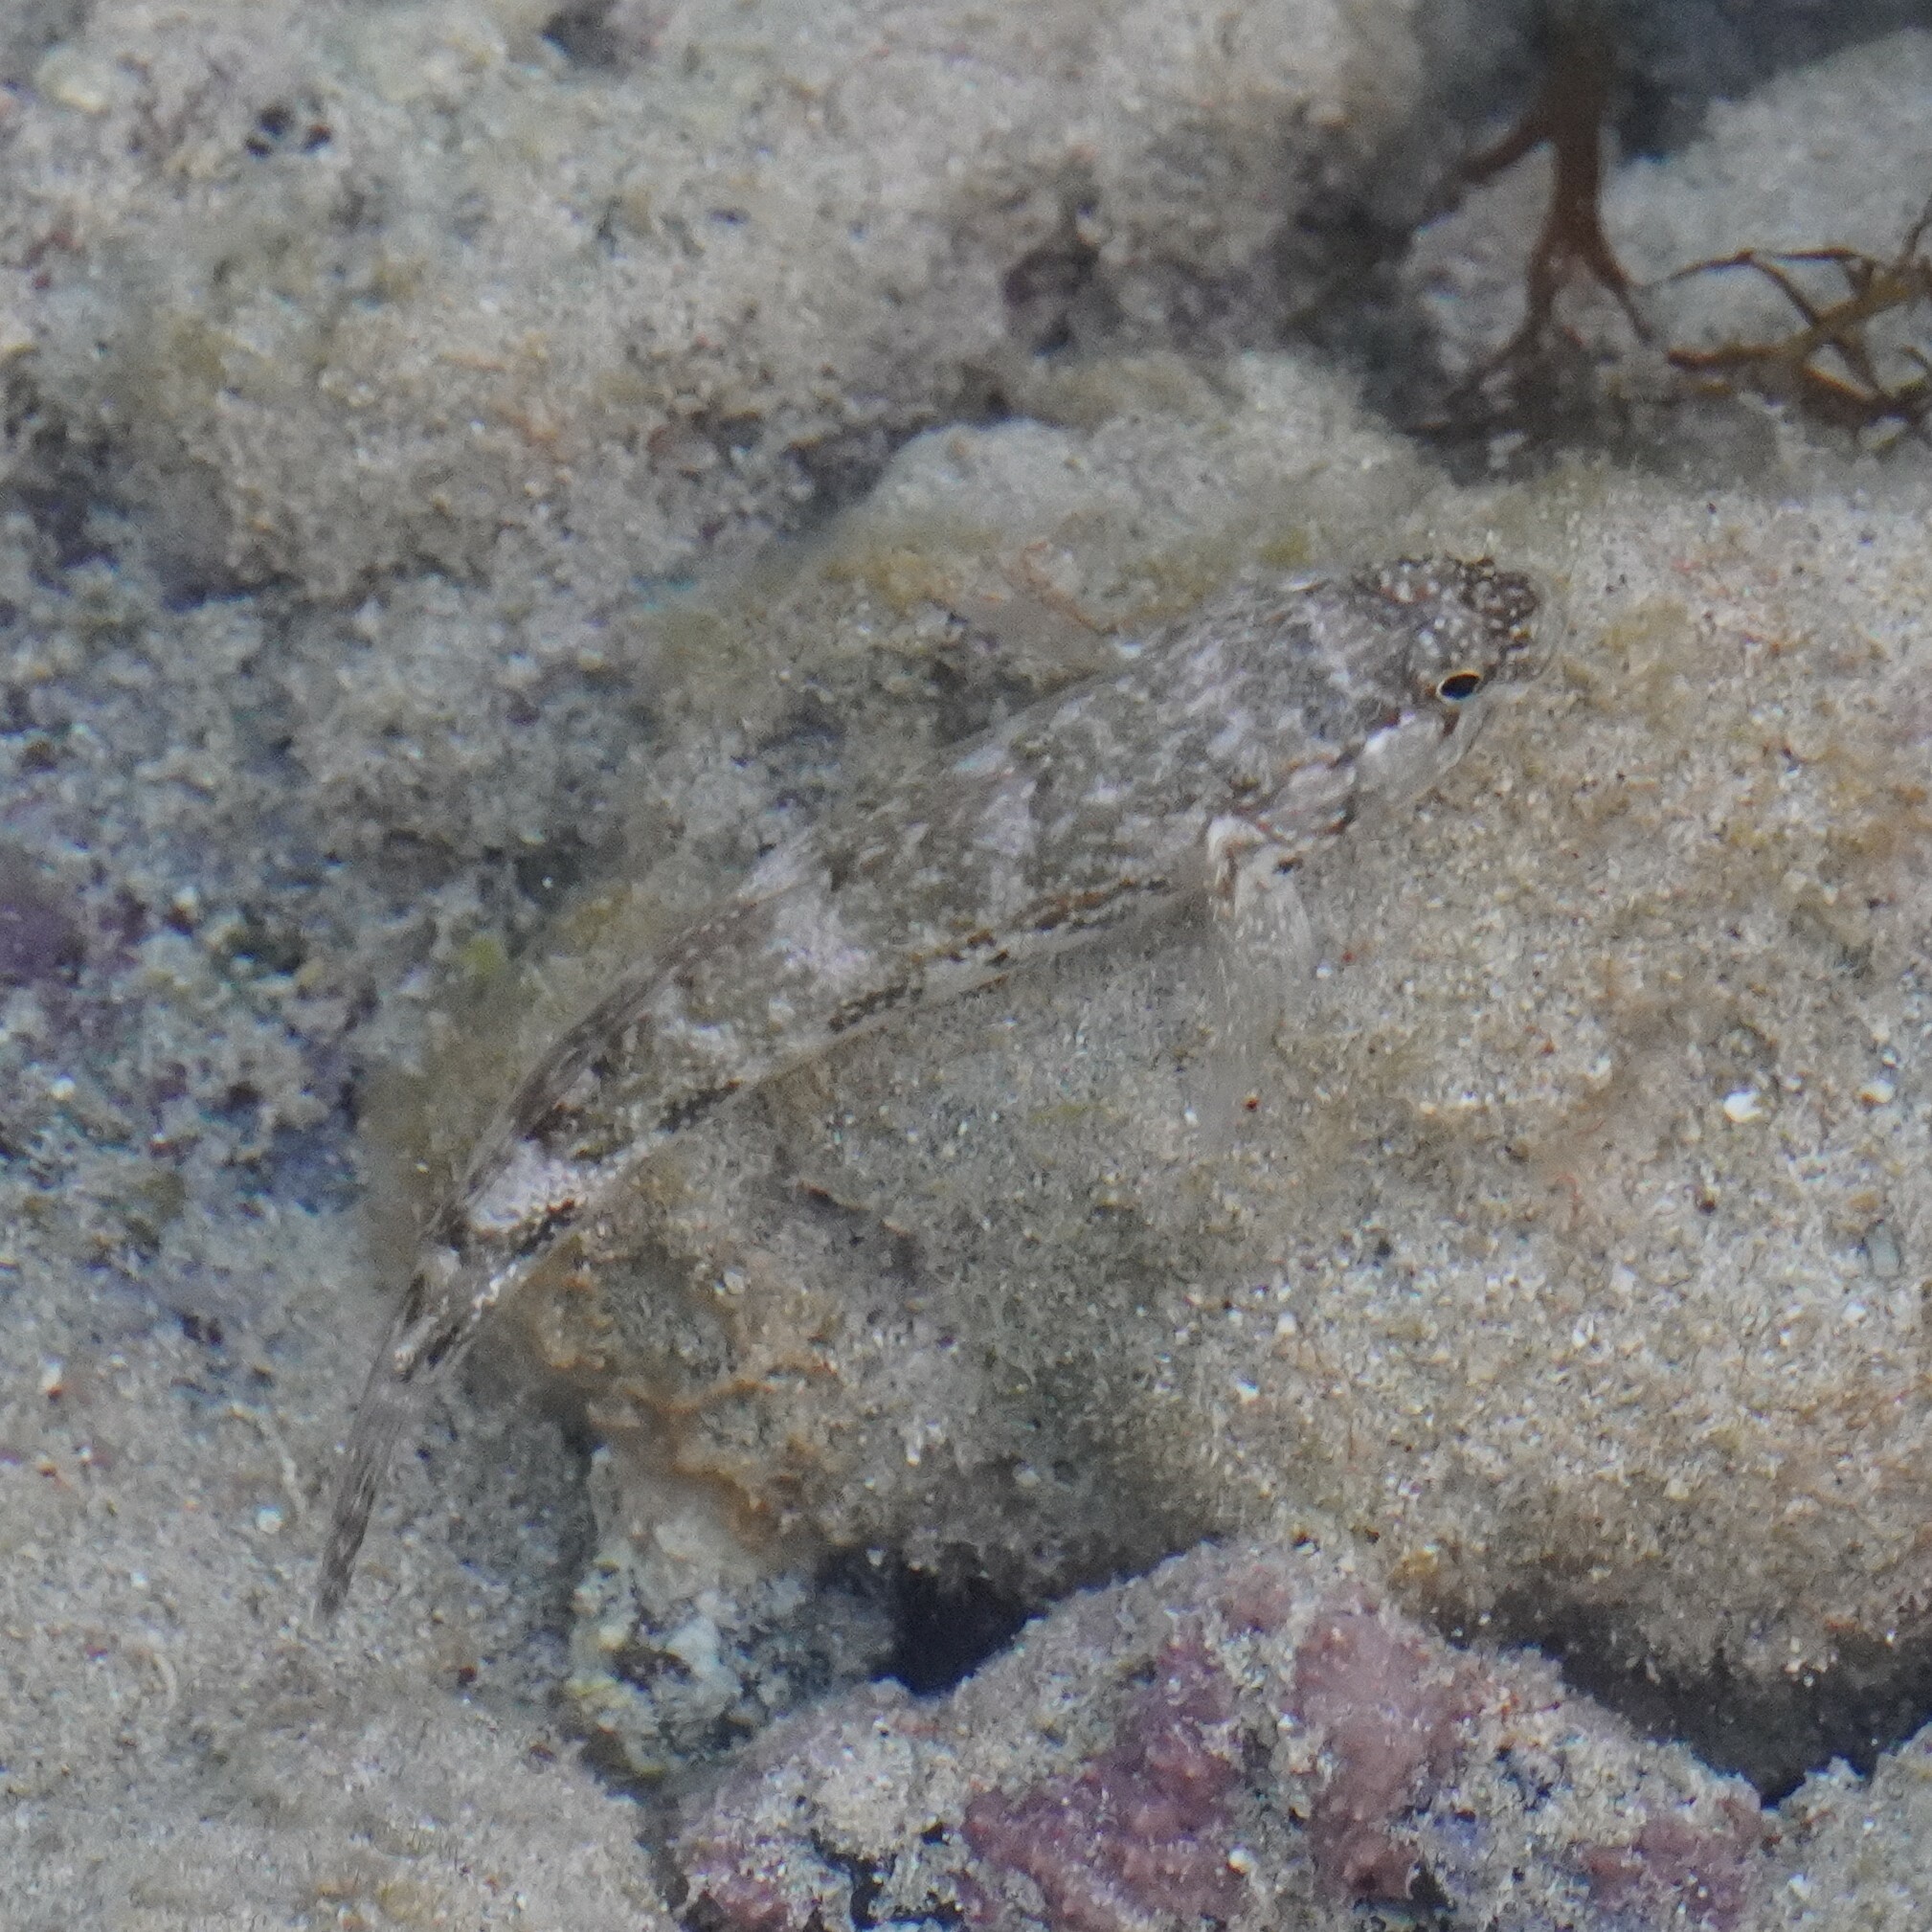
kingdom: Animalia
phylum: Chordata
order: Perciformes
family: Gobiidae
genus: Mauligobius
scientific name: Mauligobius maderensis
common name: Rock goby
